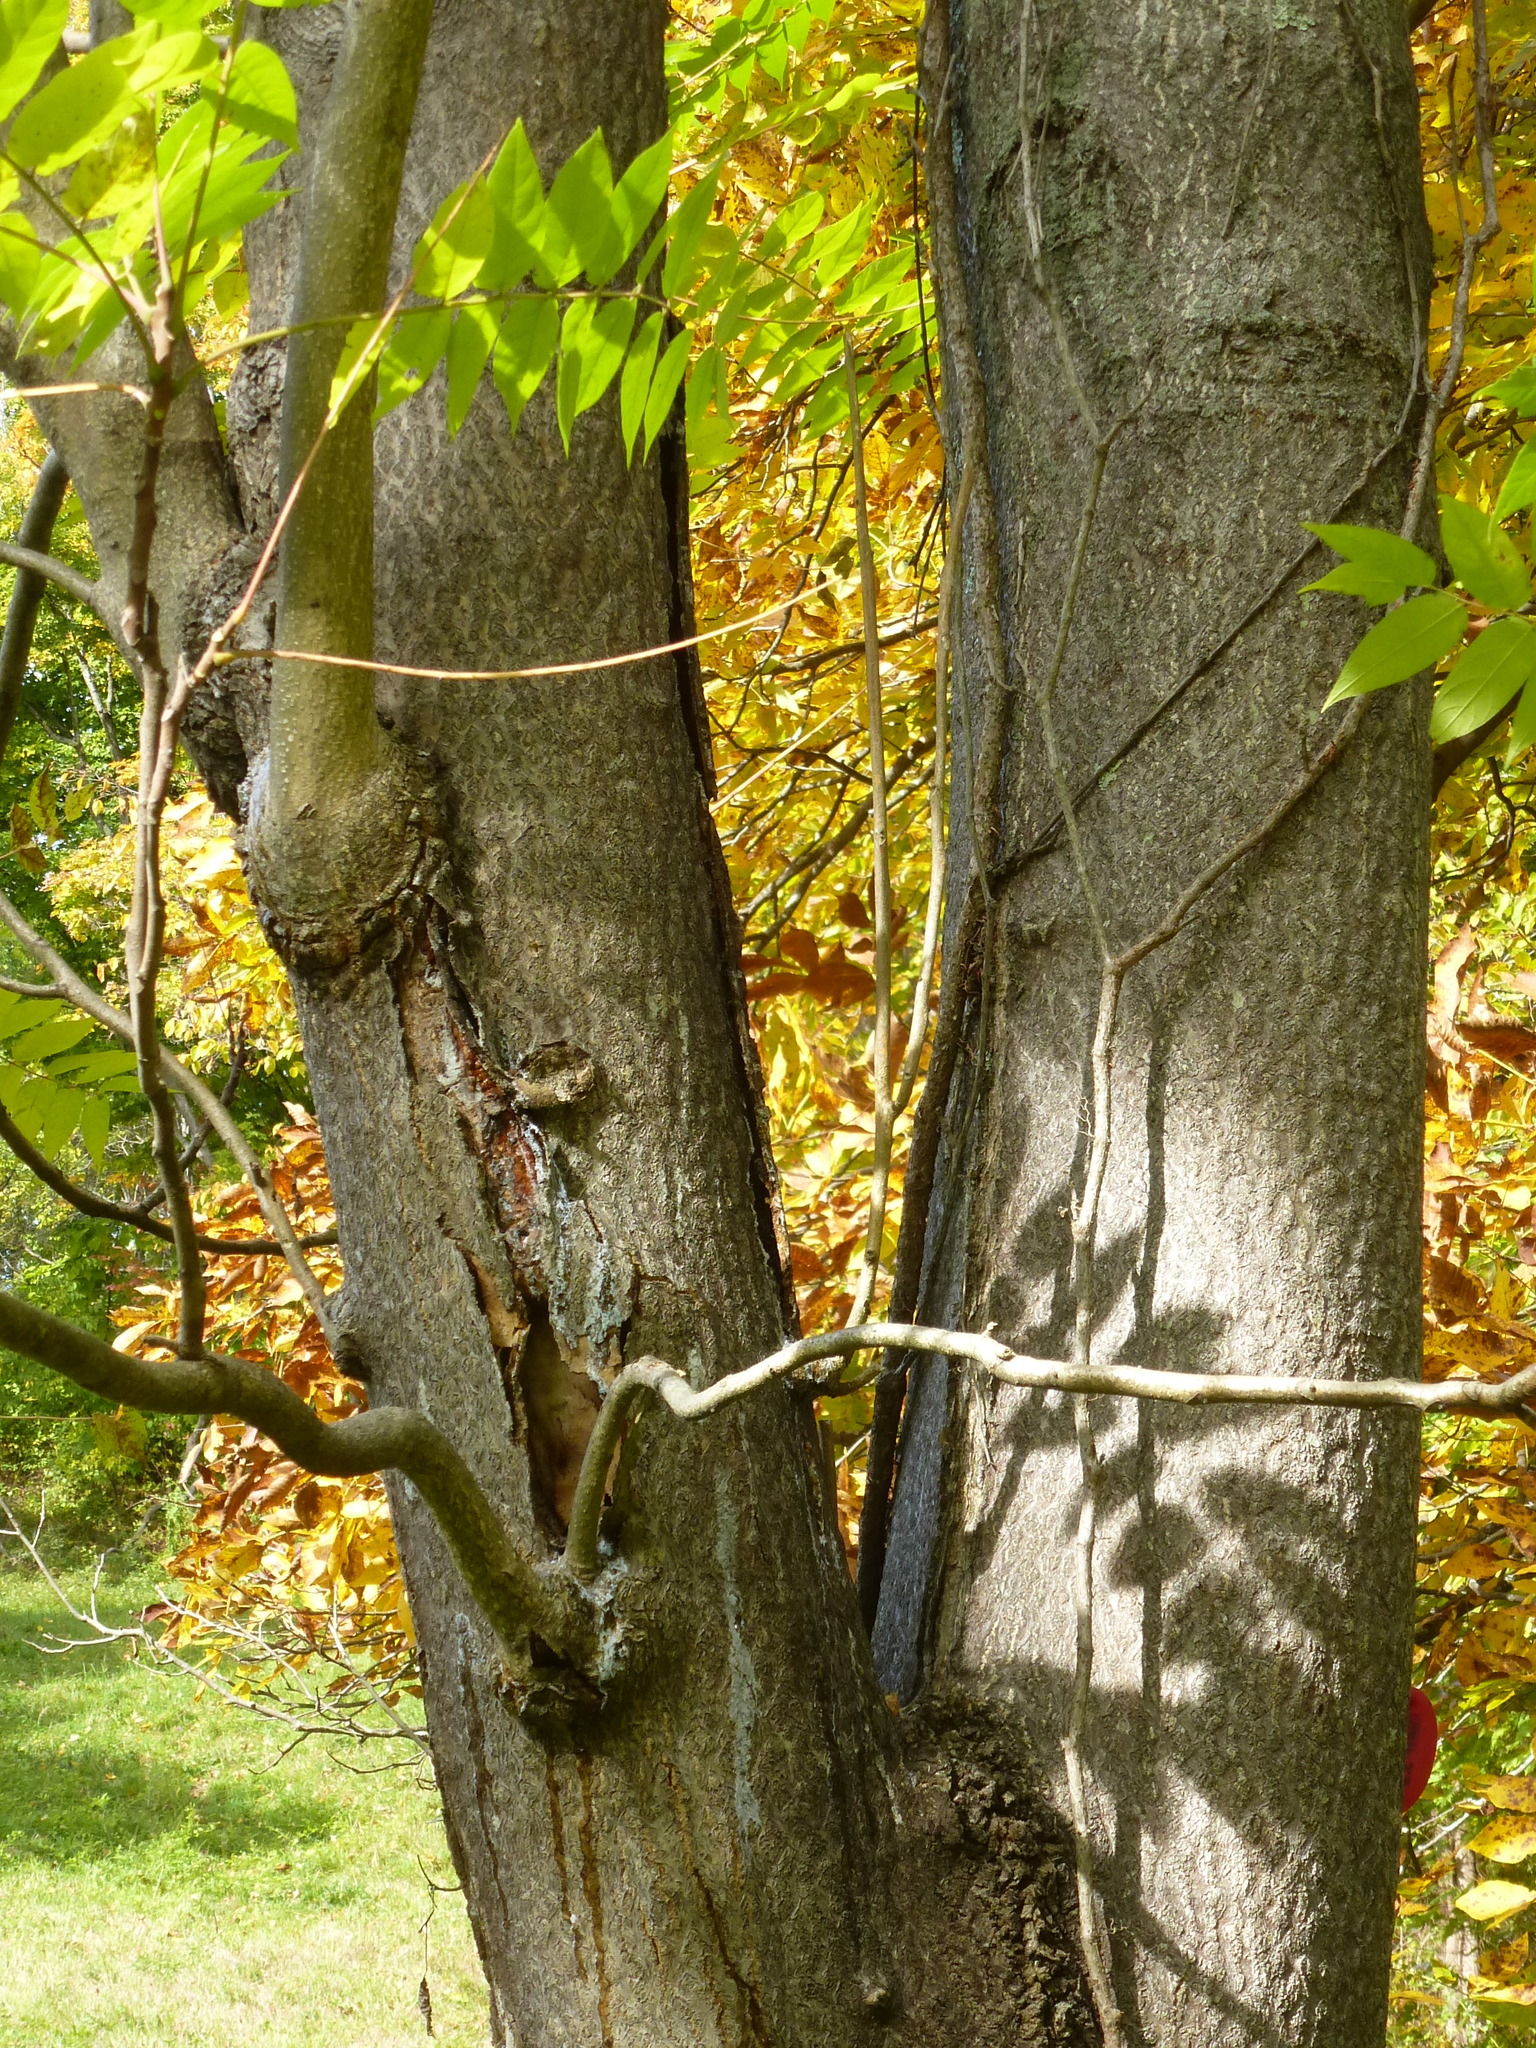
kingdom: Plantae
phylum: Tracheophyta
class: Magnoliopsida
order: Sapindales
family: Simaroubaceae
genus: Ailanthus
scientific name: Ailanthus altissima
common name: Tree-of-heaven
